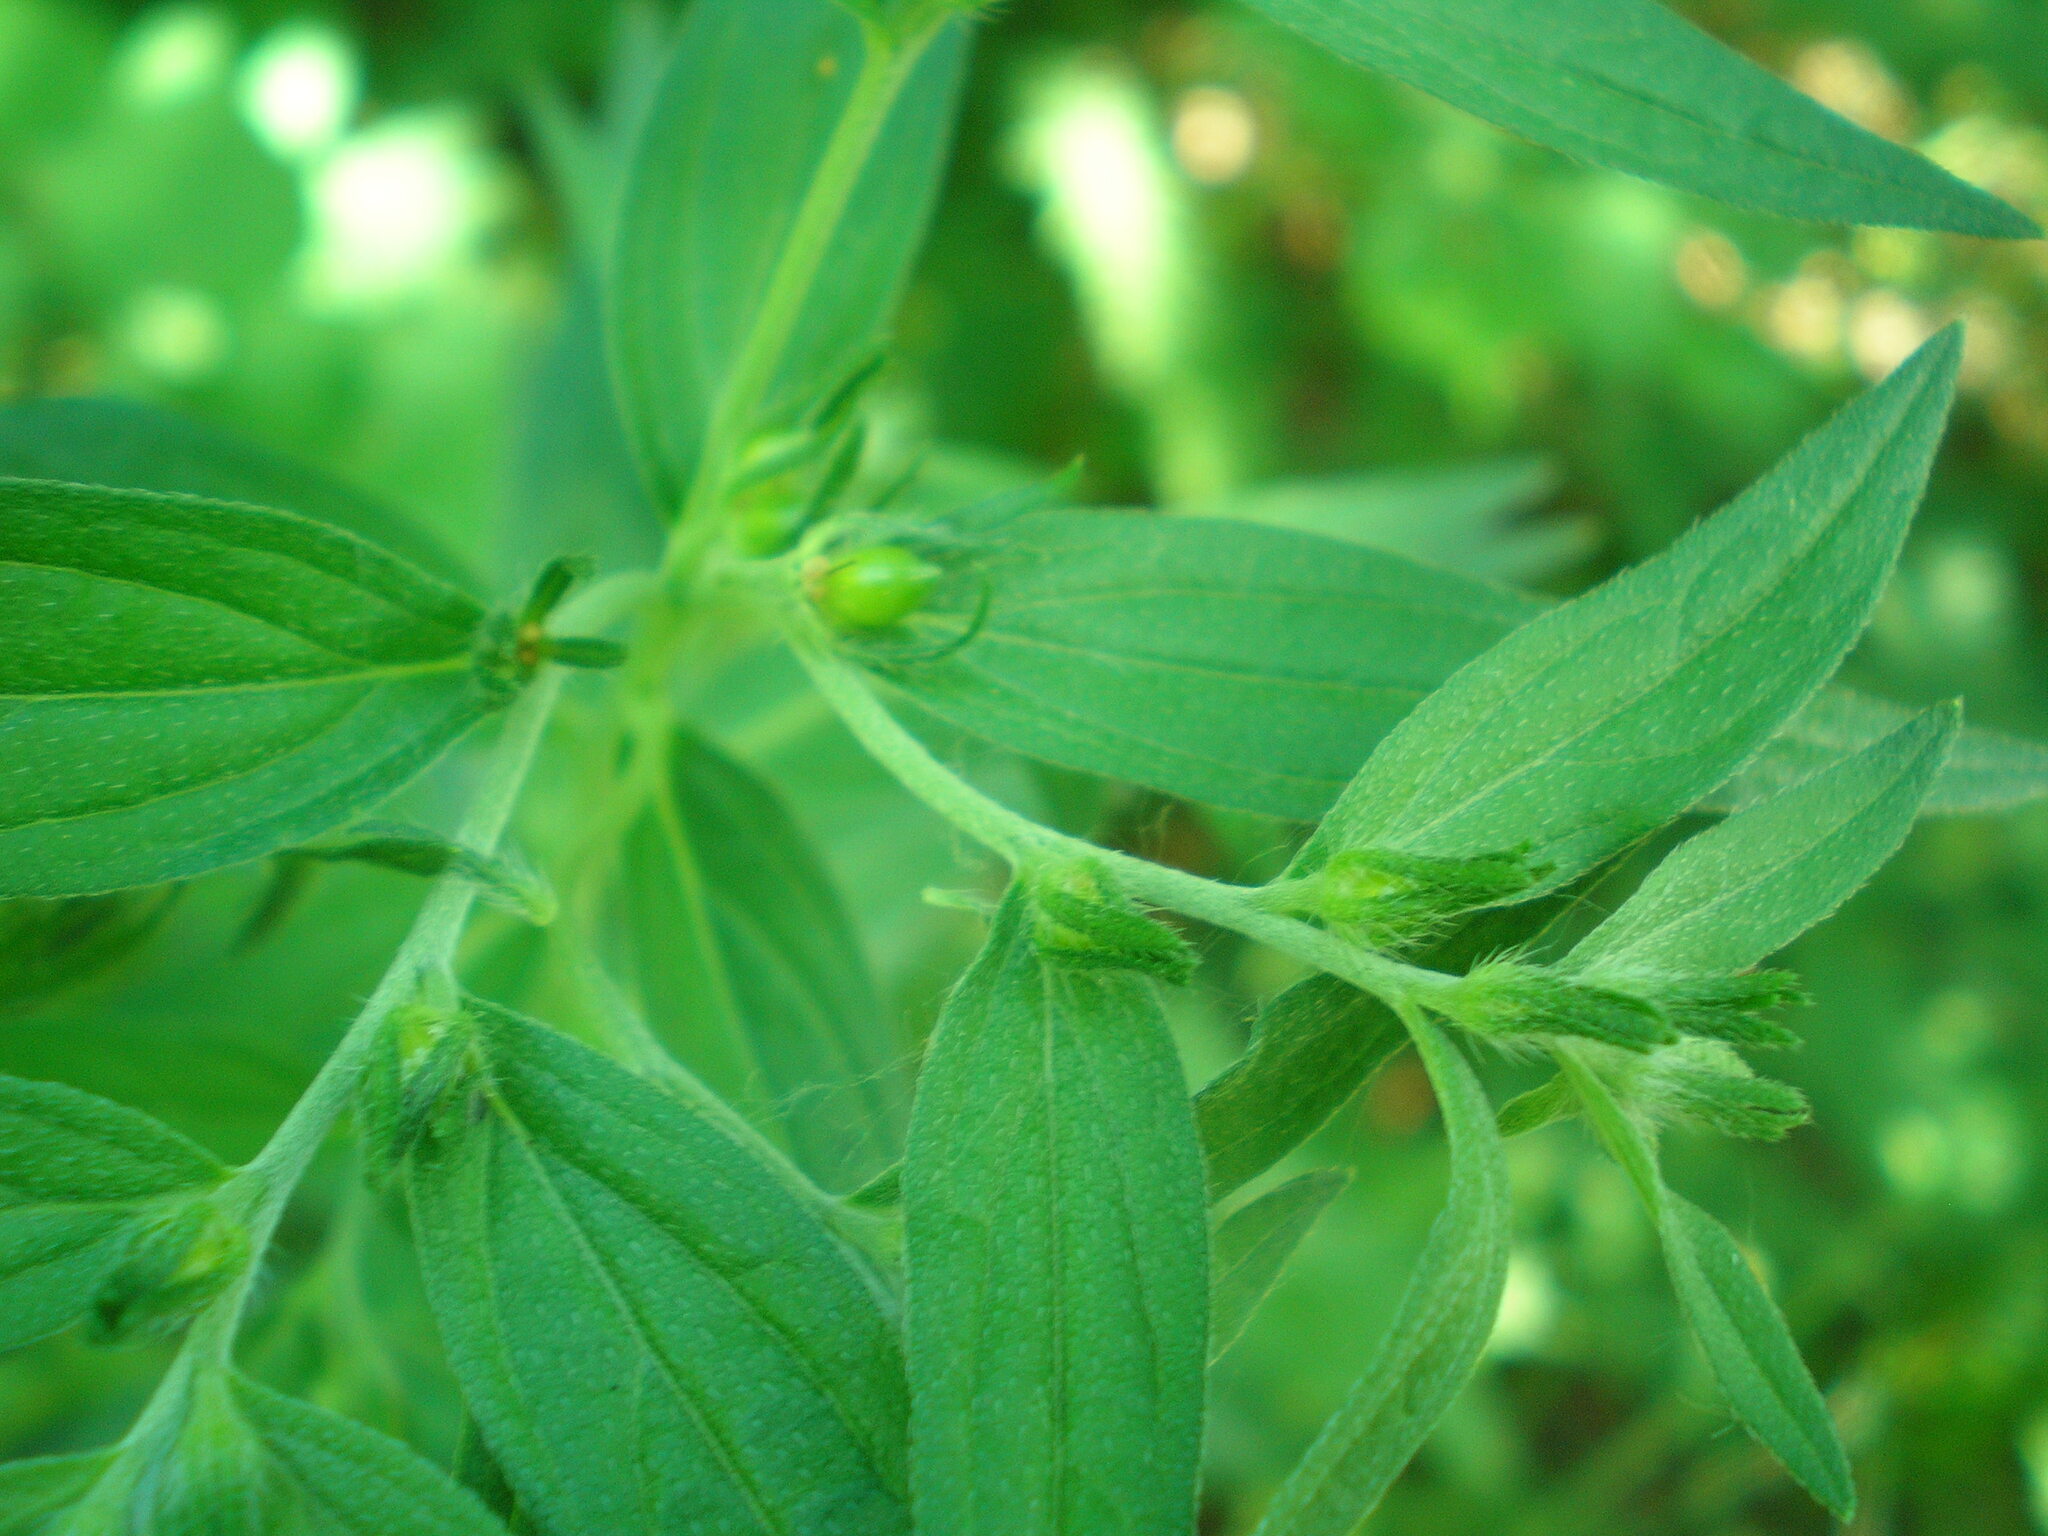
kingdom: Plantae
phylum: Tracheophyta
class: Magnoliopsida
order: Boraginales
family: Boraginaceae
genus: Lithospermum
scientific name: Lithospermum officinale
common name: Common gromwell
